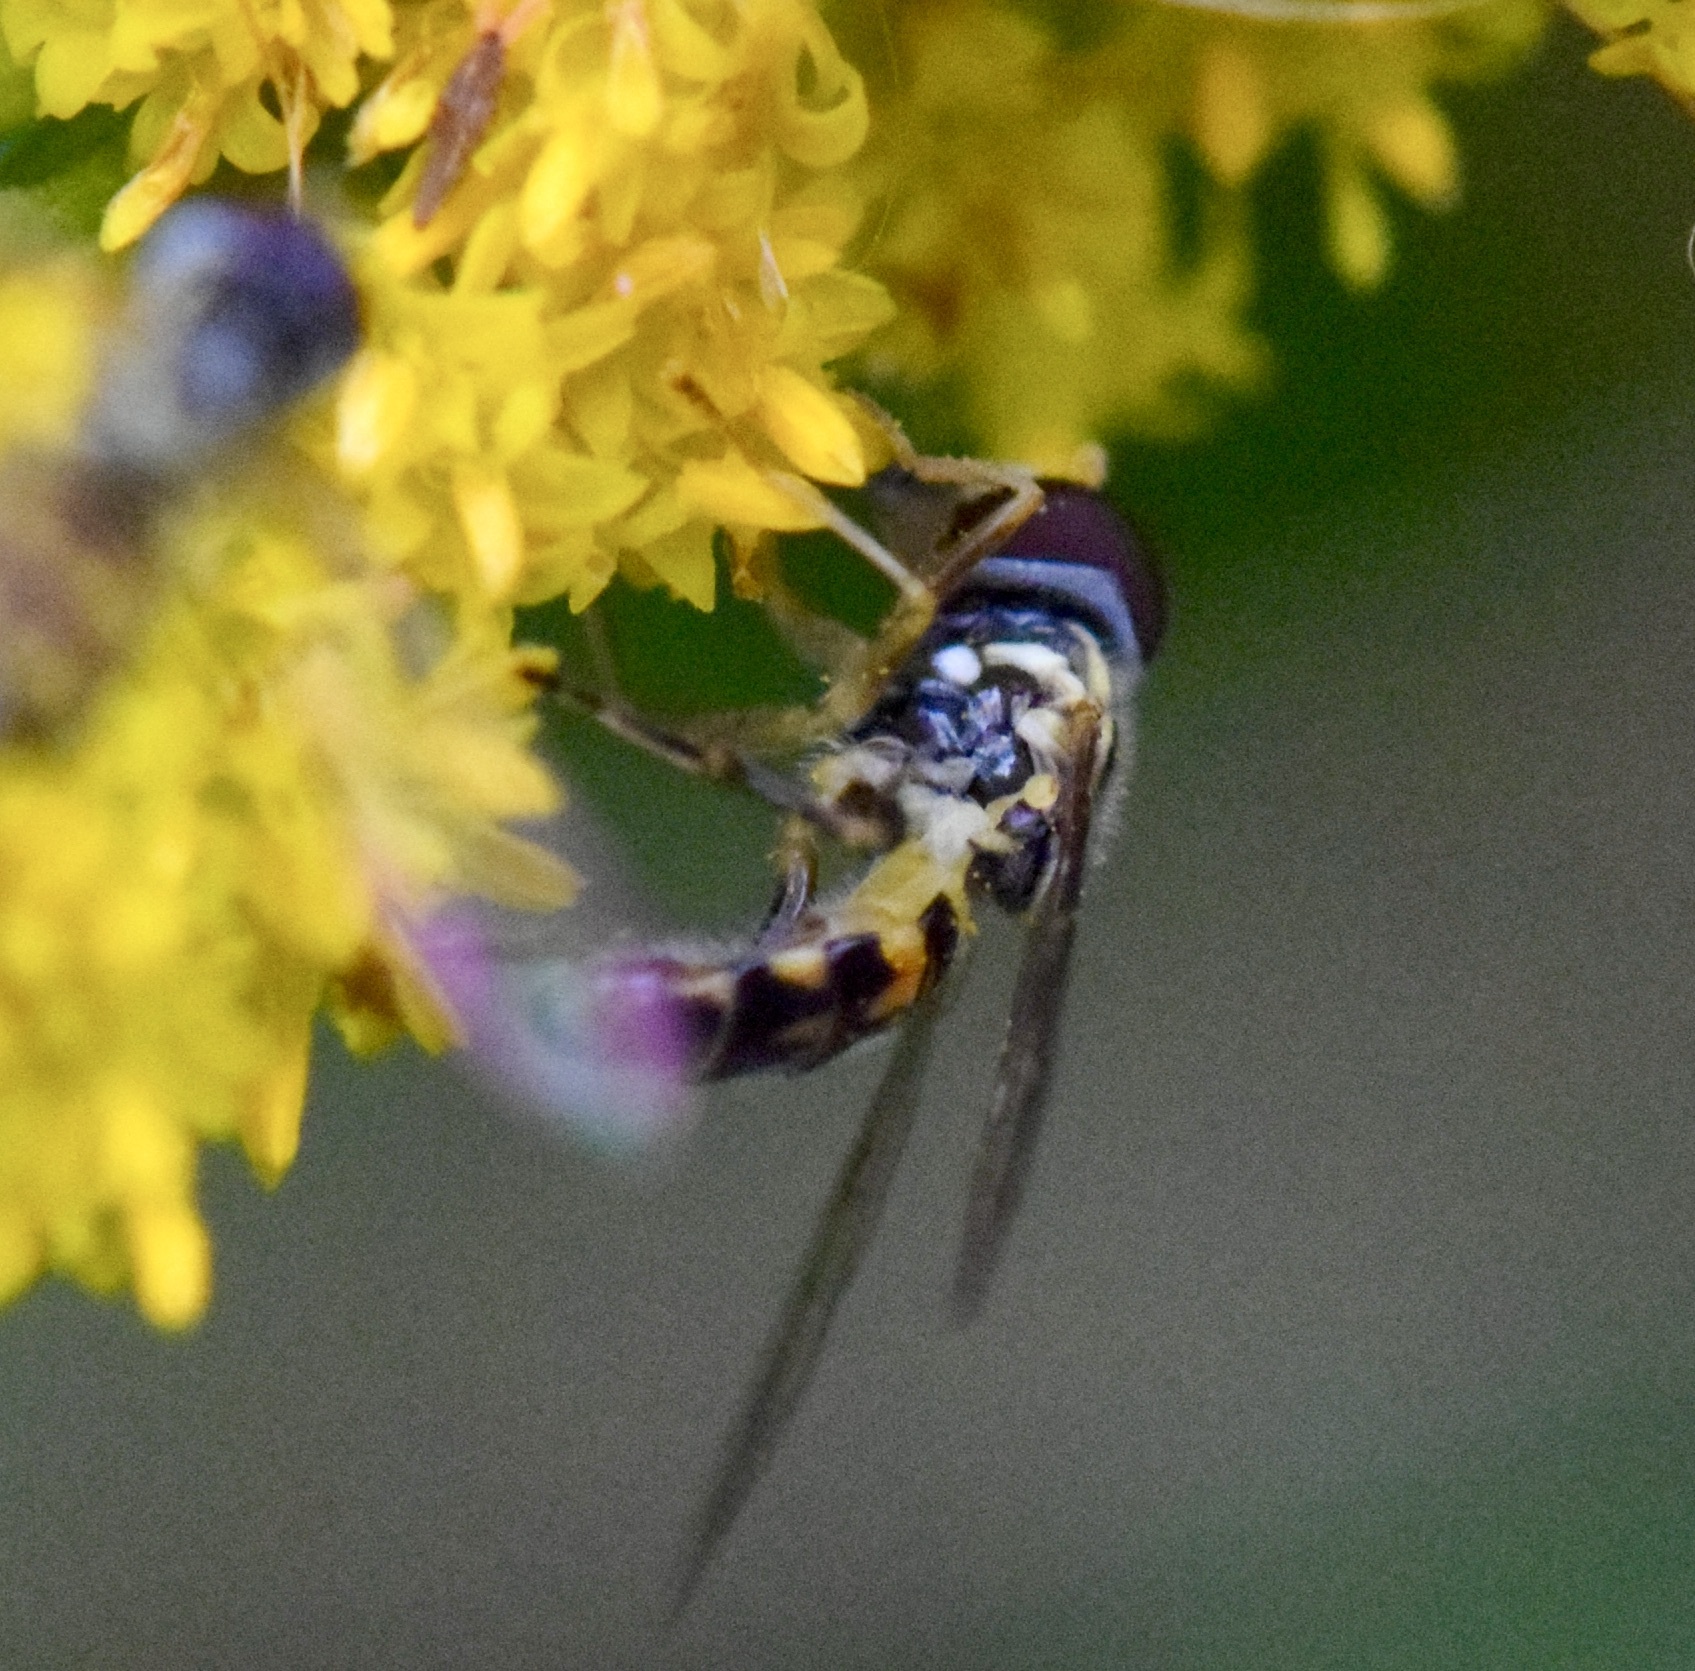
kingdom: Animalia
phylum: Arthropoda
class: Insecta
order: Diptera
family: Syrphidae
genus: Toxomerus
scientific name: Toxomerus geminatus
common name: Eastern calligrapher
